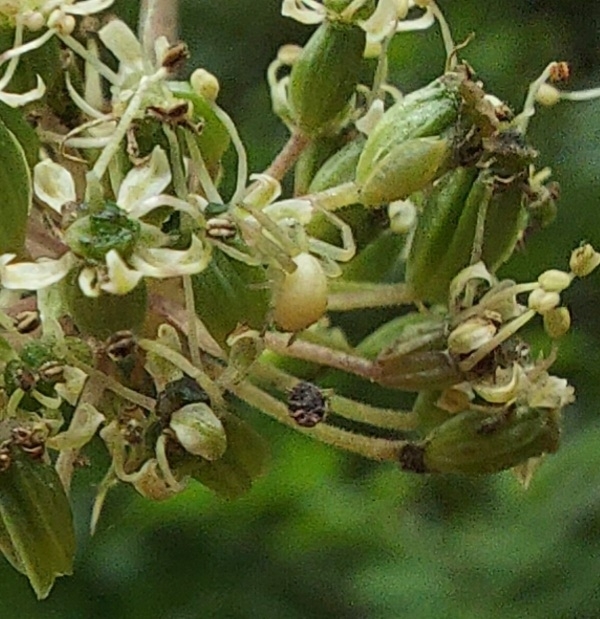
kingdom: Animalia
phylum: Arthropoda
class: Arachnida
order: Araneae
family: Thomisidae
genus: Misumena
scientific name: Misumena vatia
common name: Goldenrod crab spider
